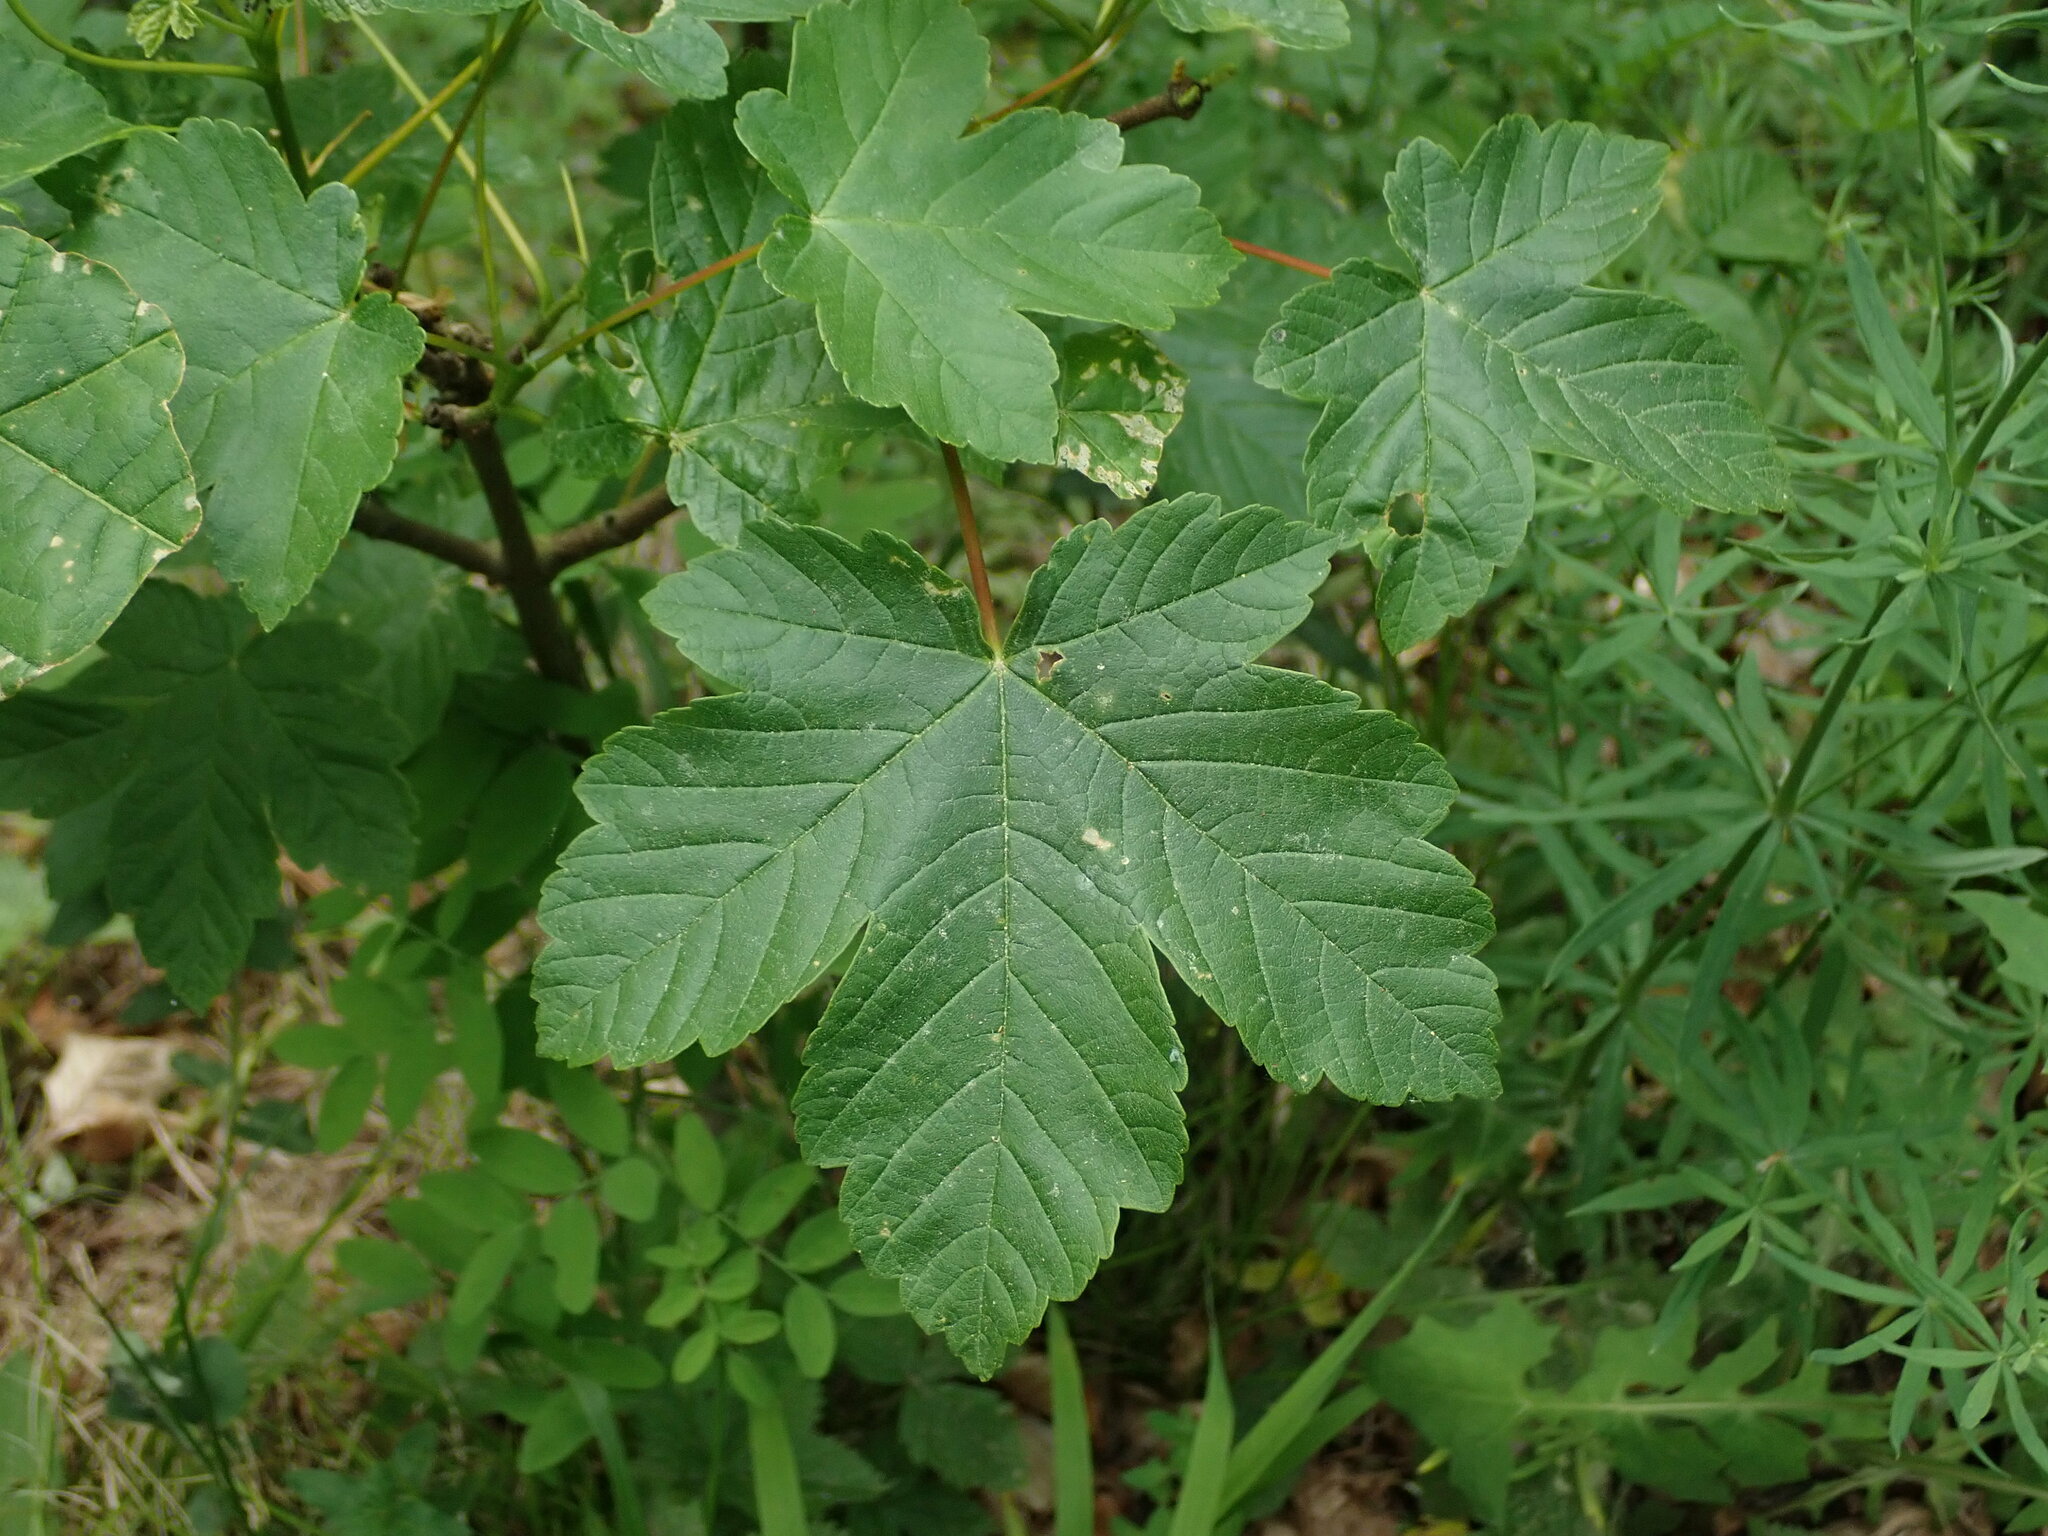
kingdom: Plantae
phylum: Tracheophyta
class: Magnoliopsida
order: Sapindales
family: Sapindaceae
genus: Acer
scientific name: Acer pseudoplatanus
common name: Sycamore
